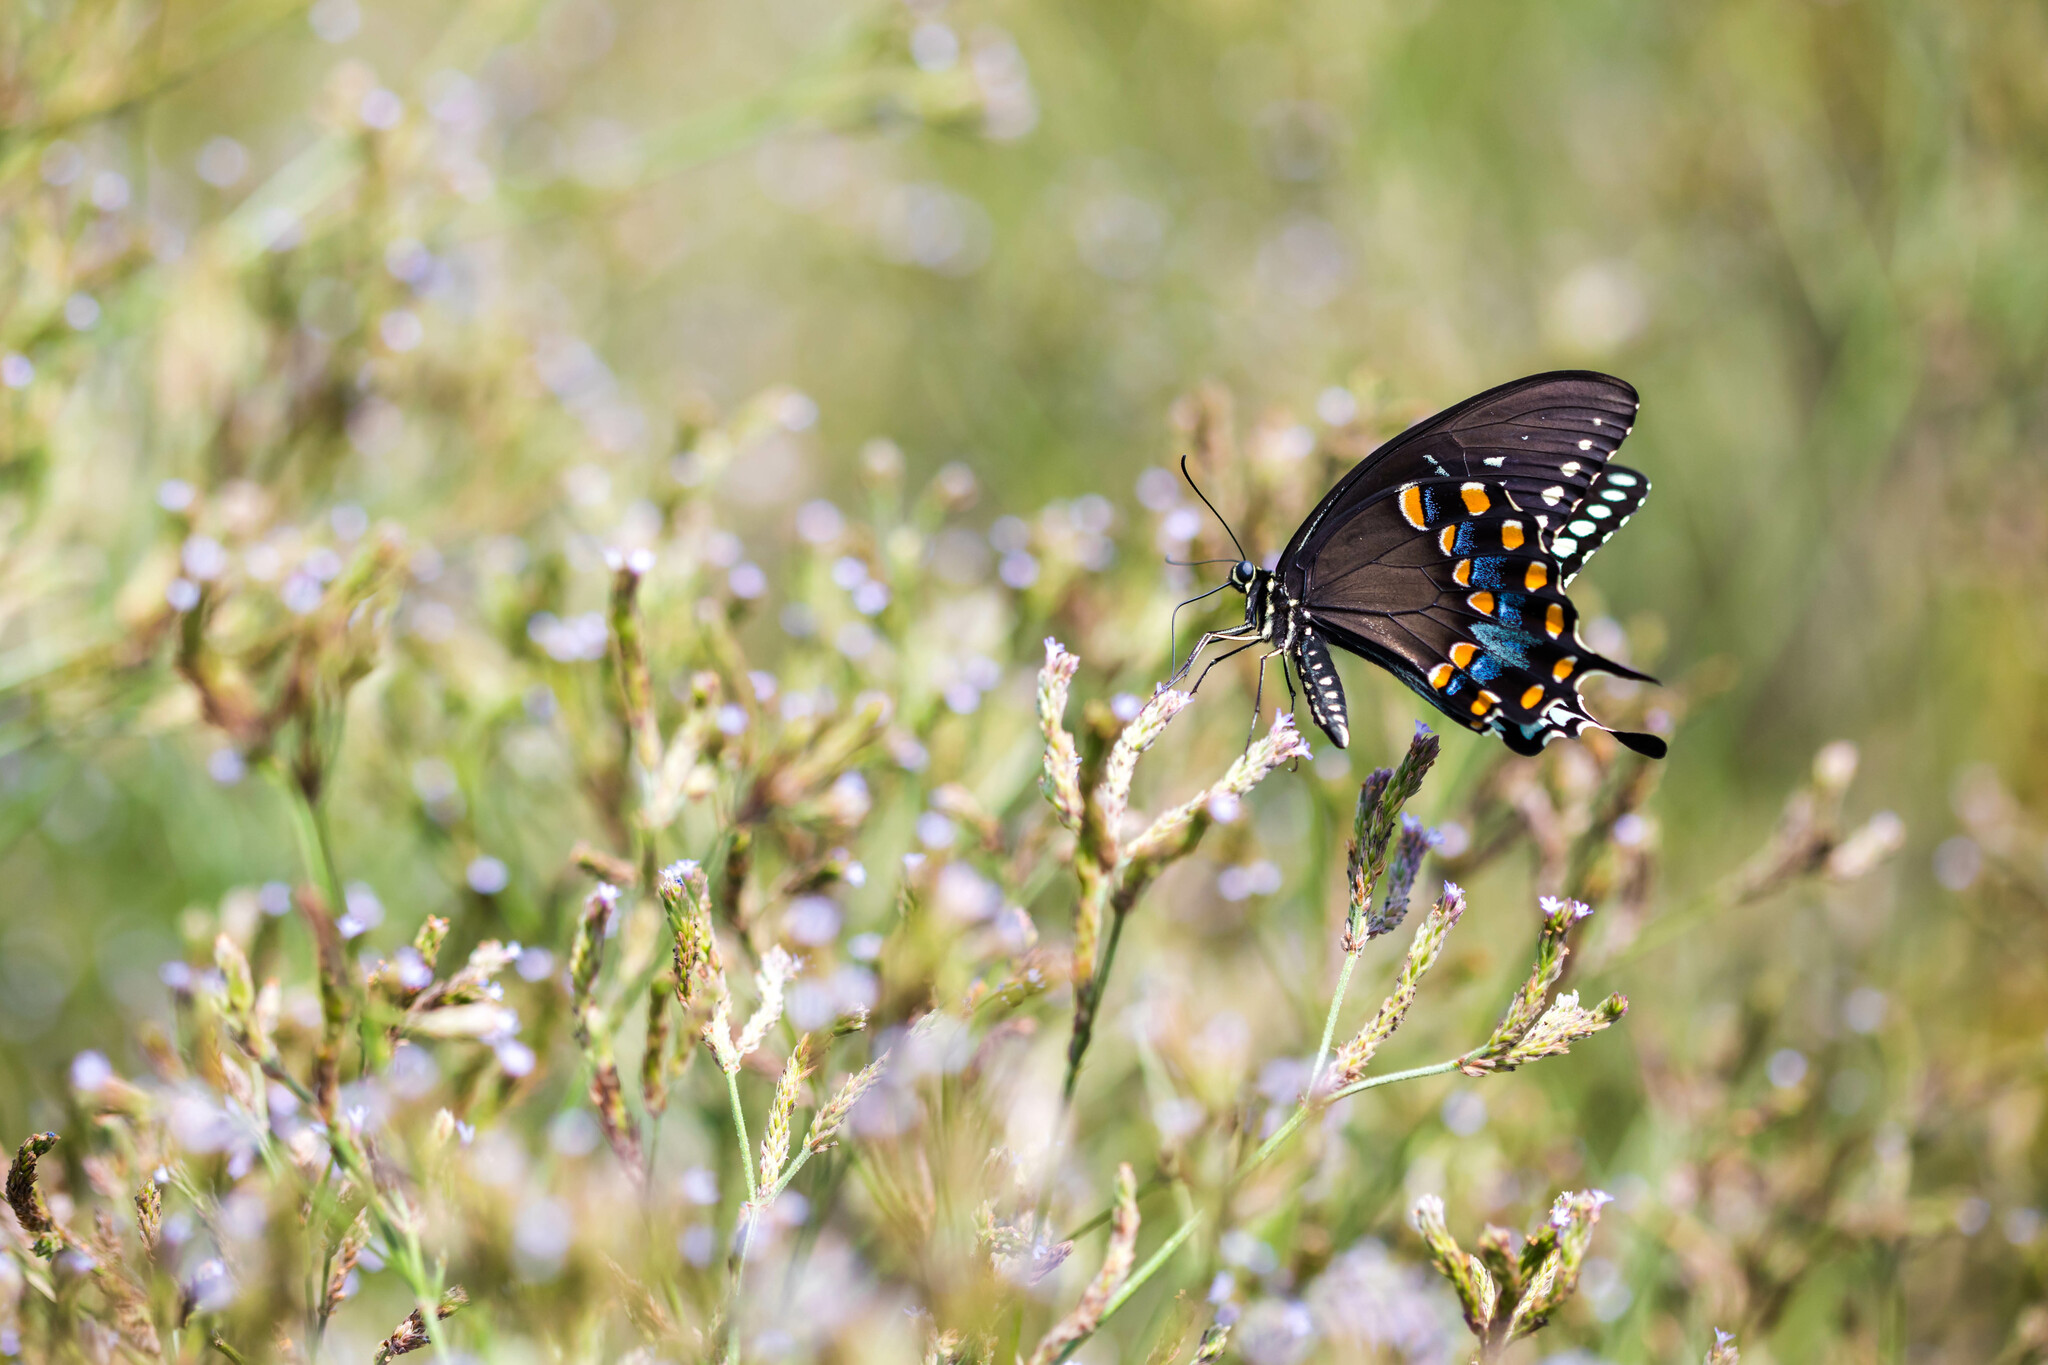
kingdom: Animalia
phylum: Arthropoda
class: Insecta
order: Lepidoptera
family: Papilionidae
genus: Papilio
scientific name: Papilio troilus
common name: Spicebush swallowtail
